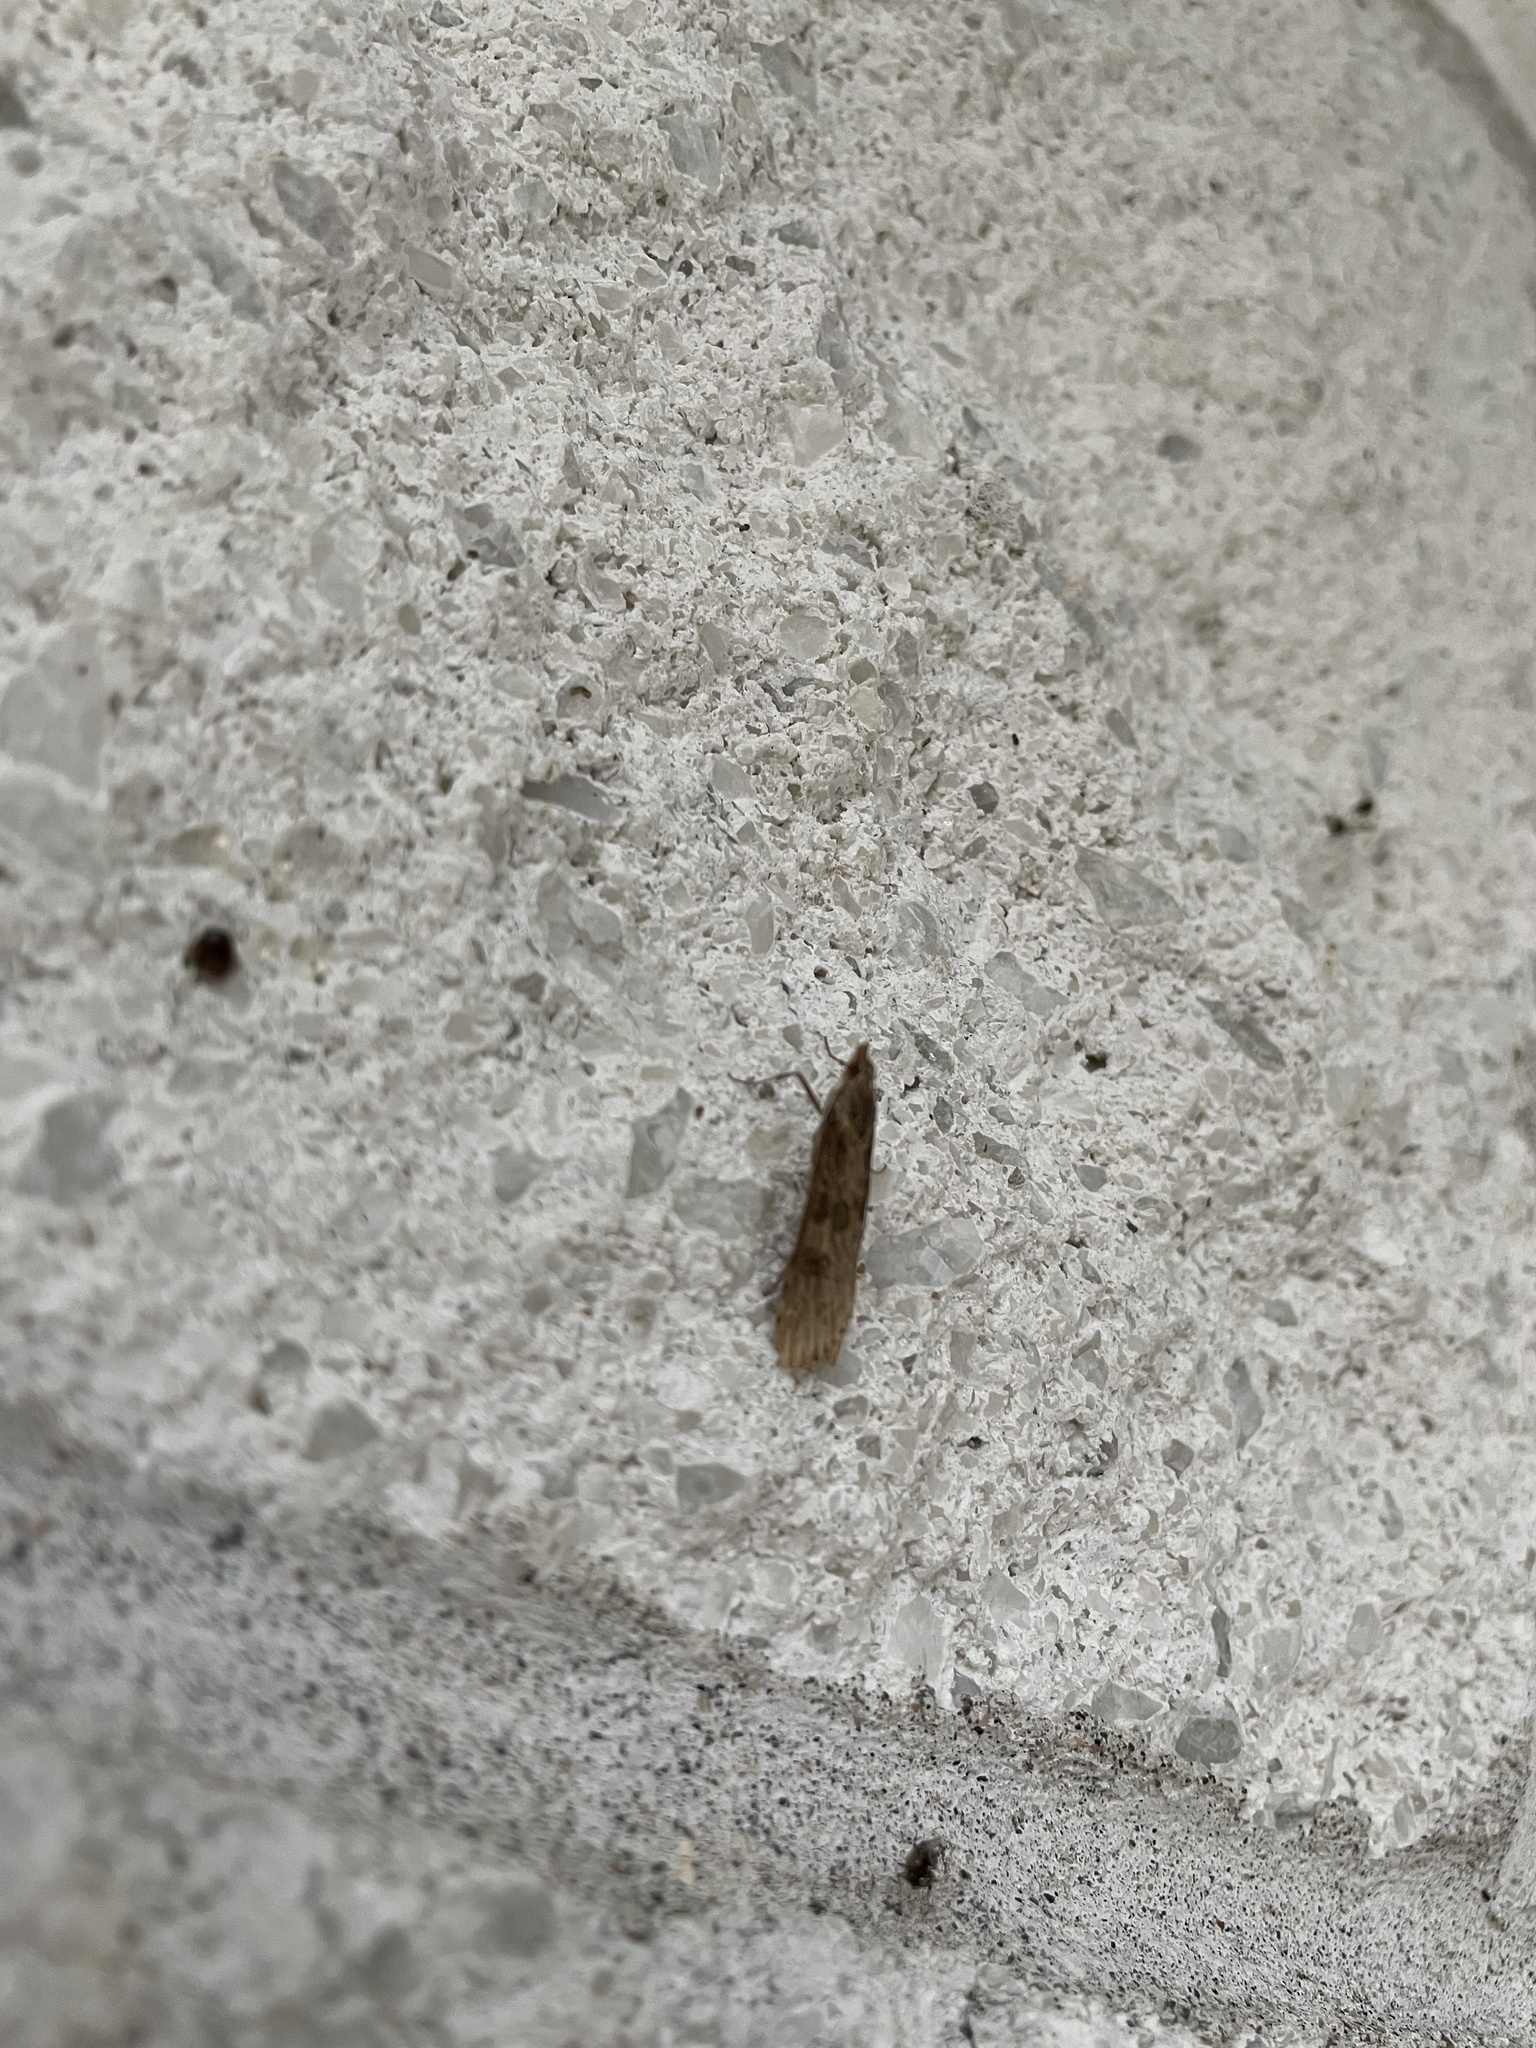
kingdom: Animalia
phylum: Arthropoda
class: Insecta
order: Lepidoptera
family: Crambidae
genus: Nomophila
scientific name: Nomophila nearctica
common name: American rush veneer
